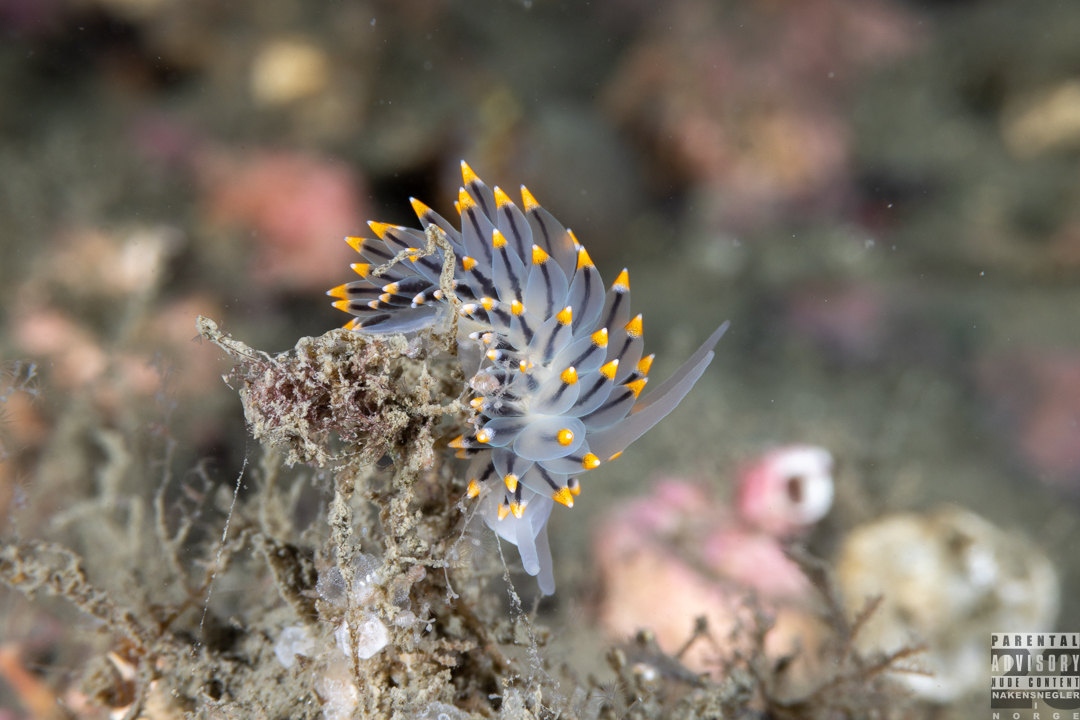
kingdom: Animalia
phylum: Mollusca
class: Gastropoda
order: Nudibranchia
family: Eubranchidae
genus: Eubranchus
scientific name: Eubranchus tricolor
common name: Painted balloon aeolis
